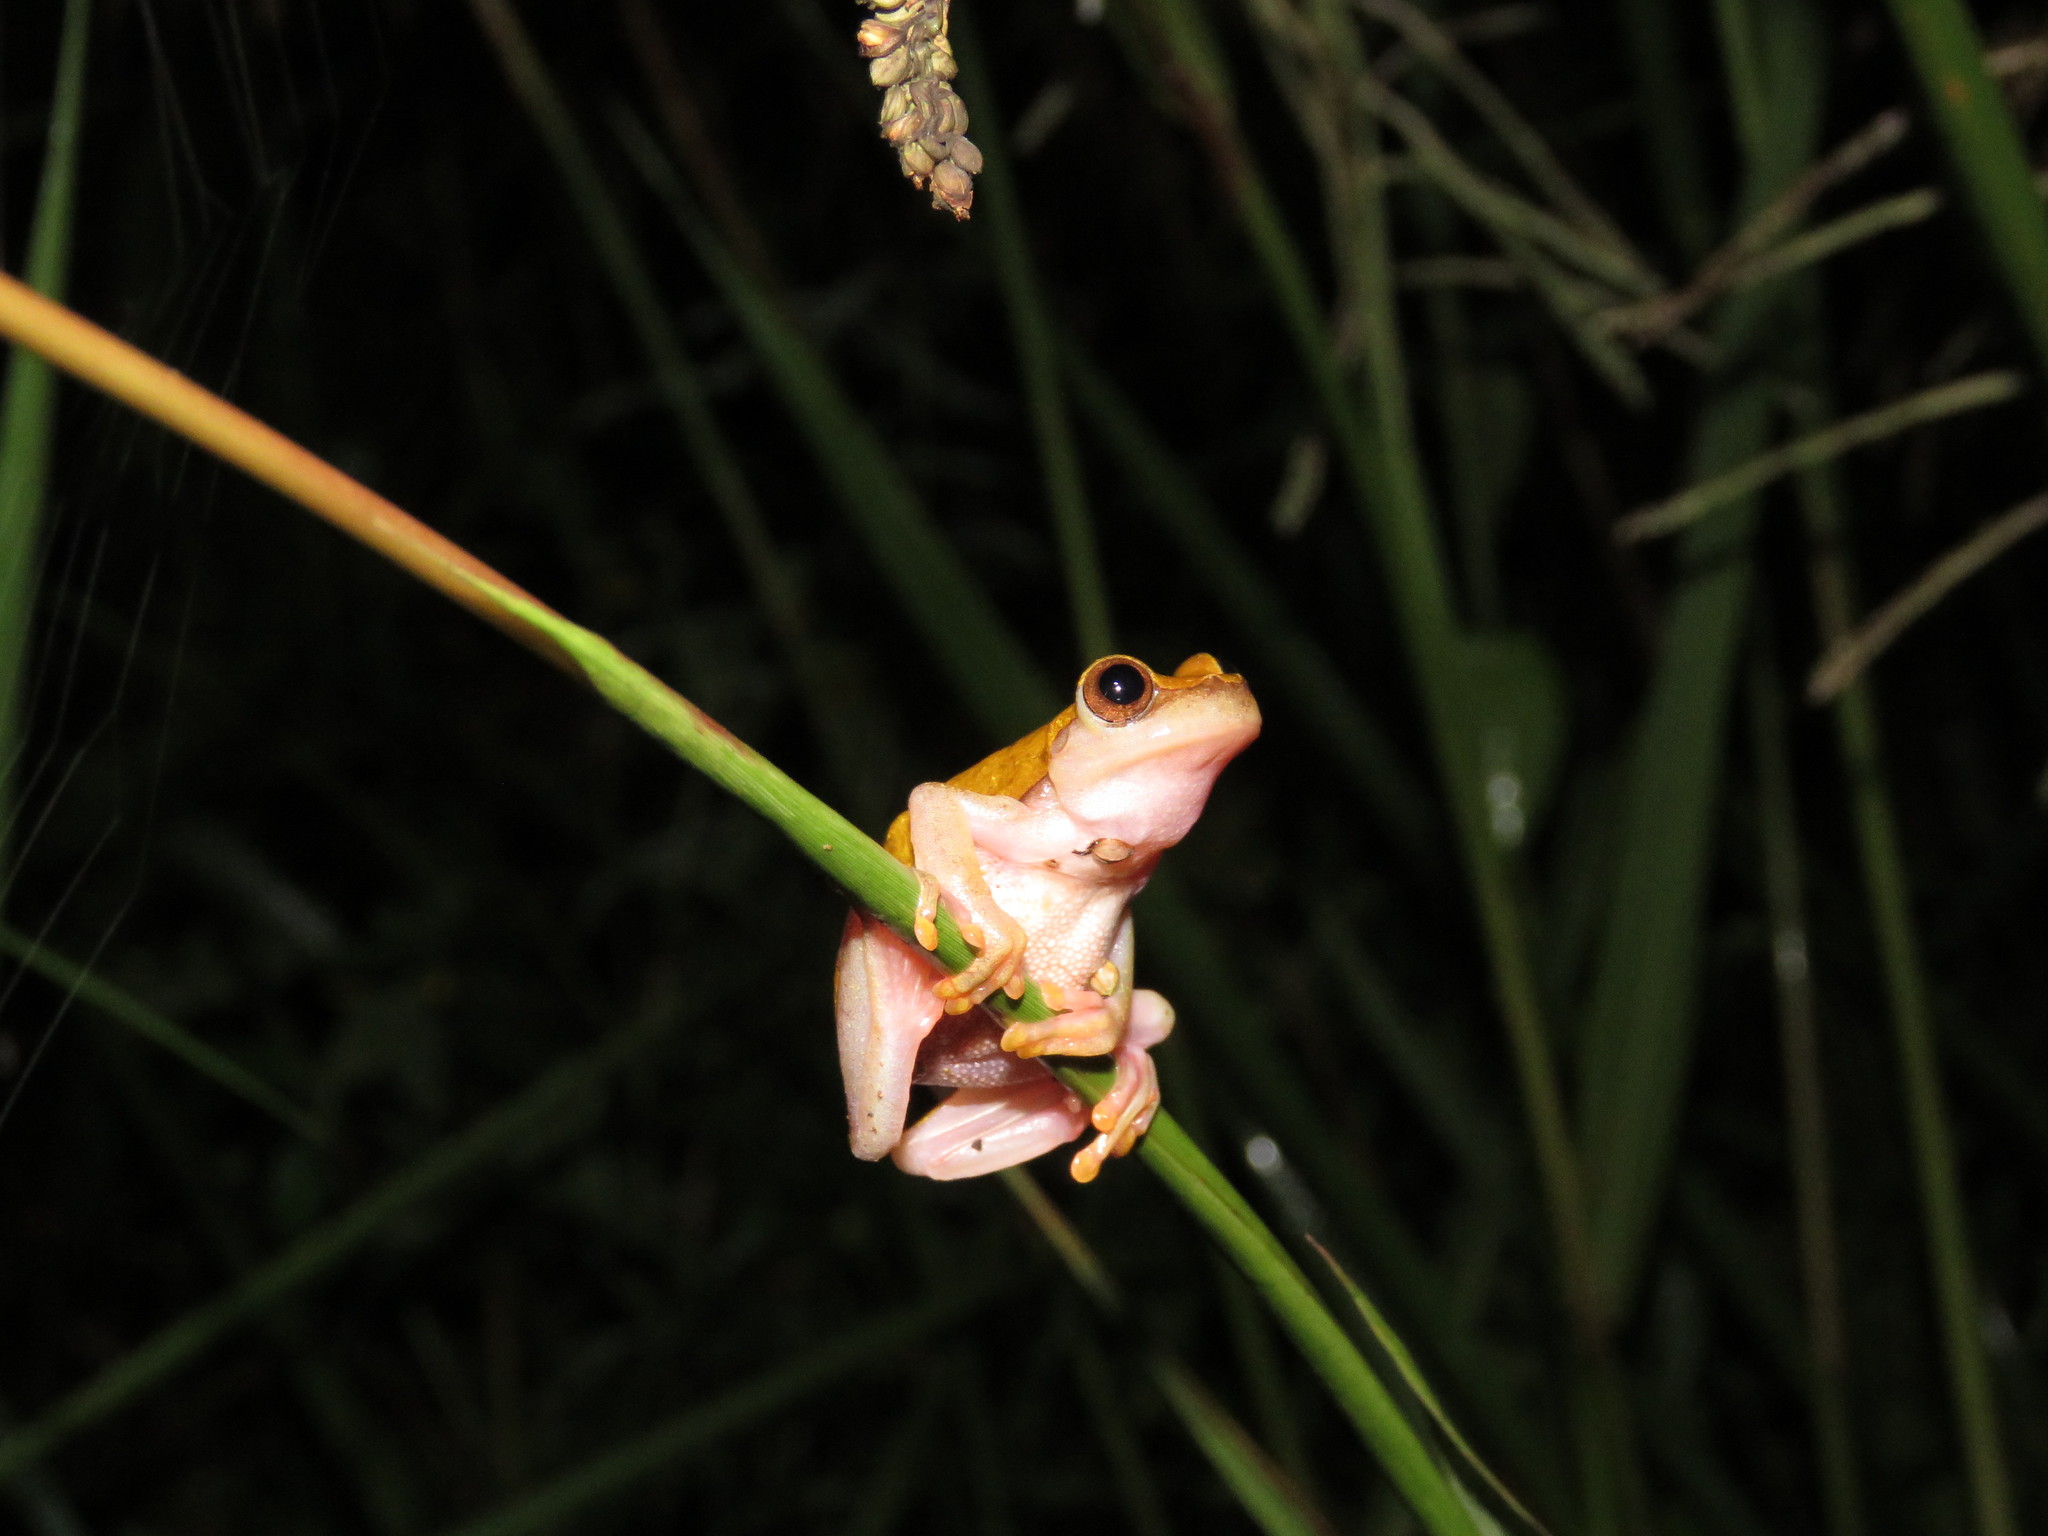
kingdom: Animalia
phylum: Chordata
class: Amphibia
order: Anura
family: Hylidae
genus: Dendropsophus
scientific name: Dendropsophus arndti
